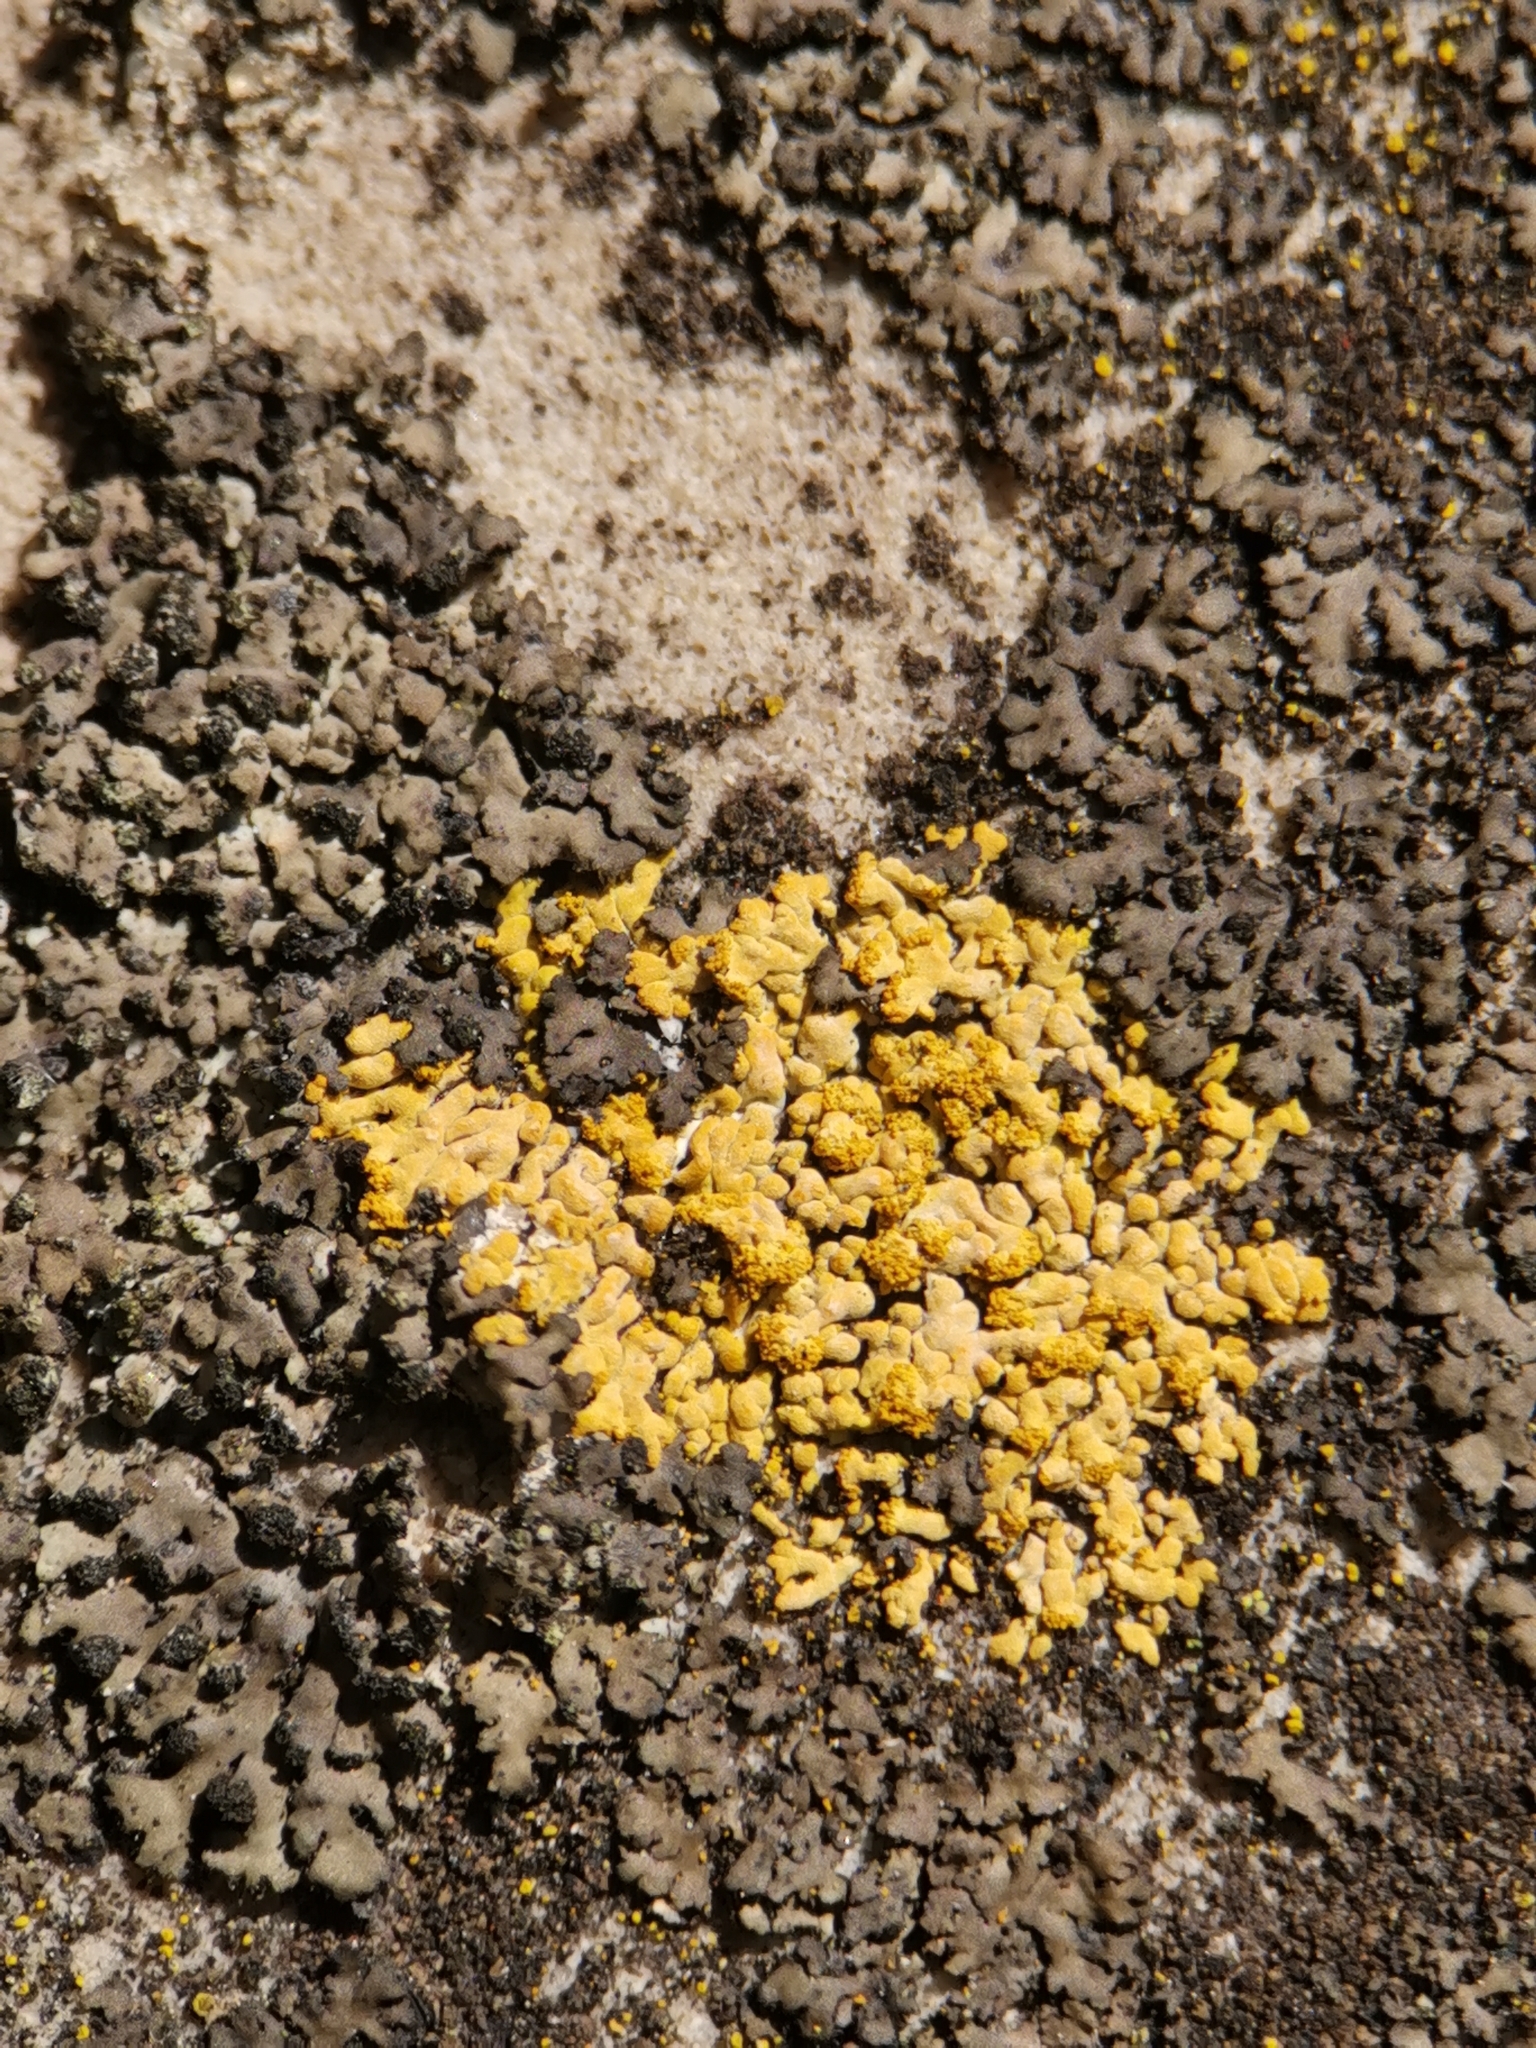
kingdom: Fungi
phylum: Ascomycota
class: Lecanoromycetes
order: Teloschistales
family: Teloschistaceae
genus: Calogaya
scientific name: Calogaya decipiens
